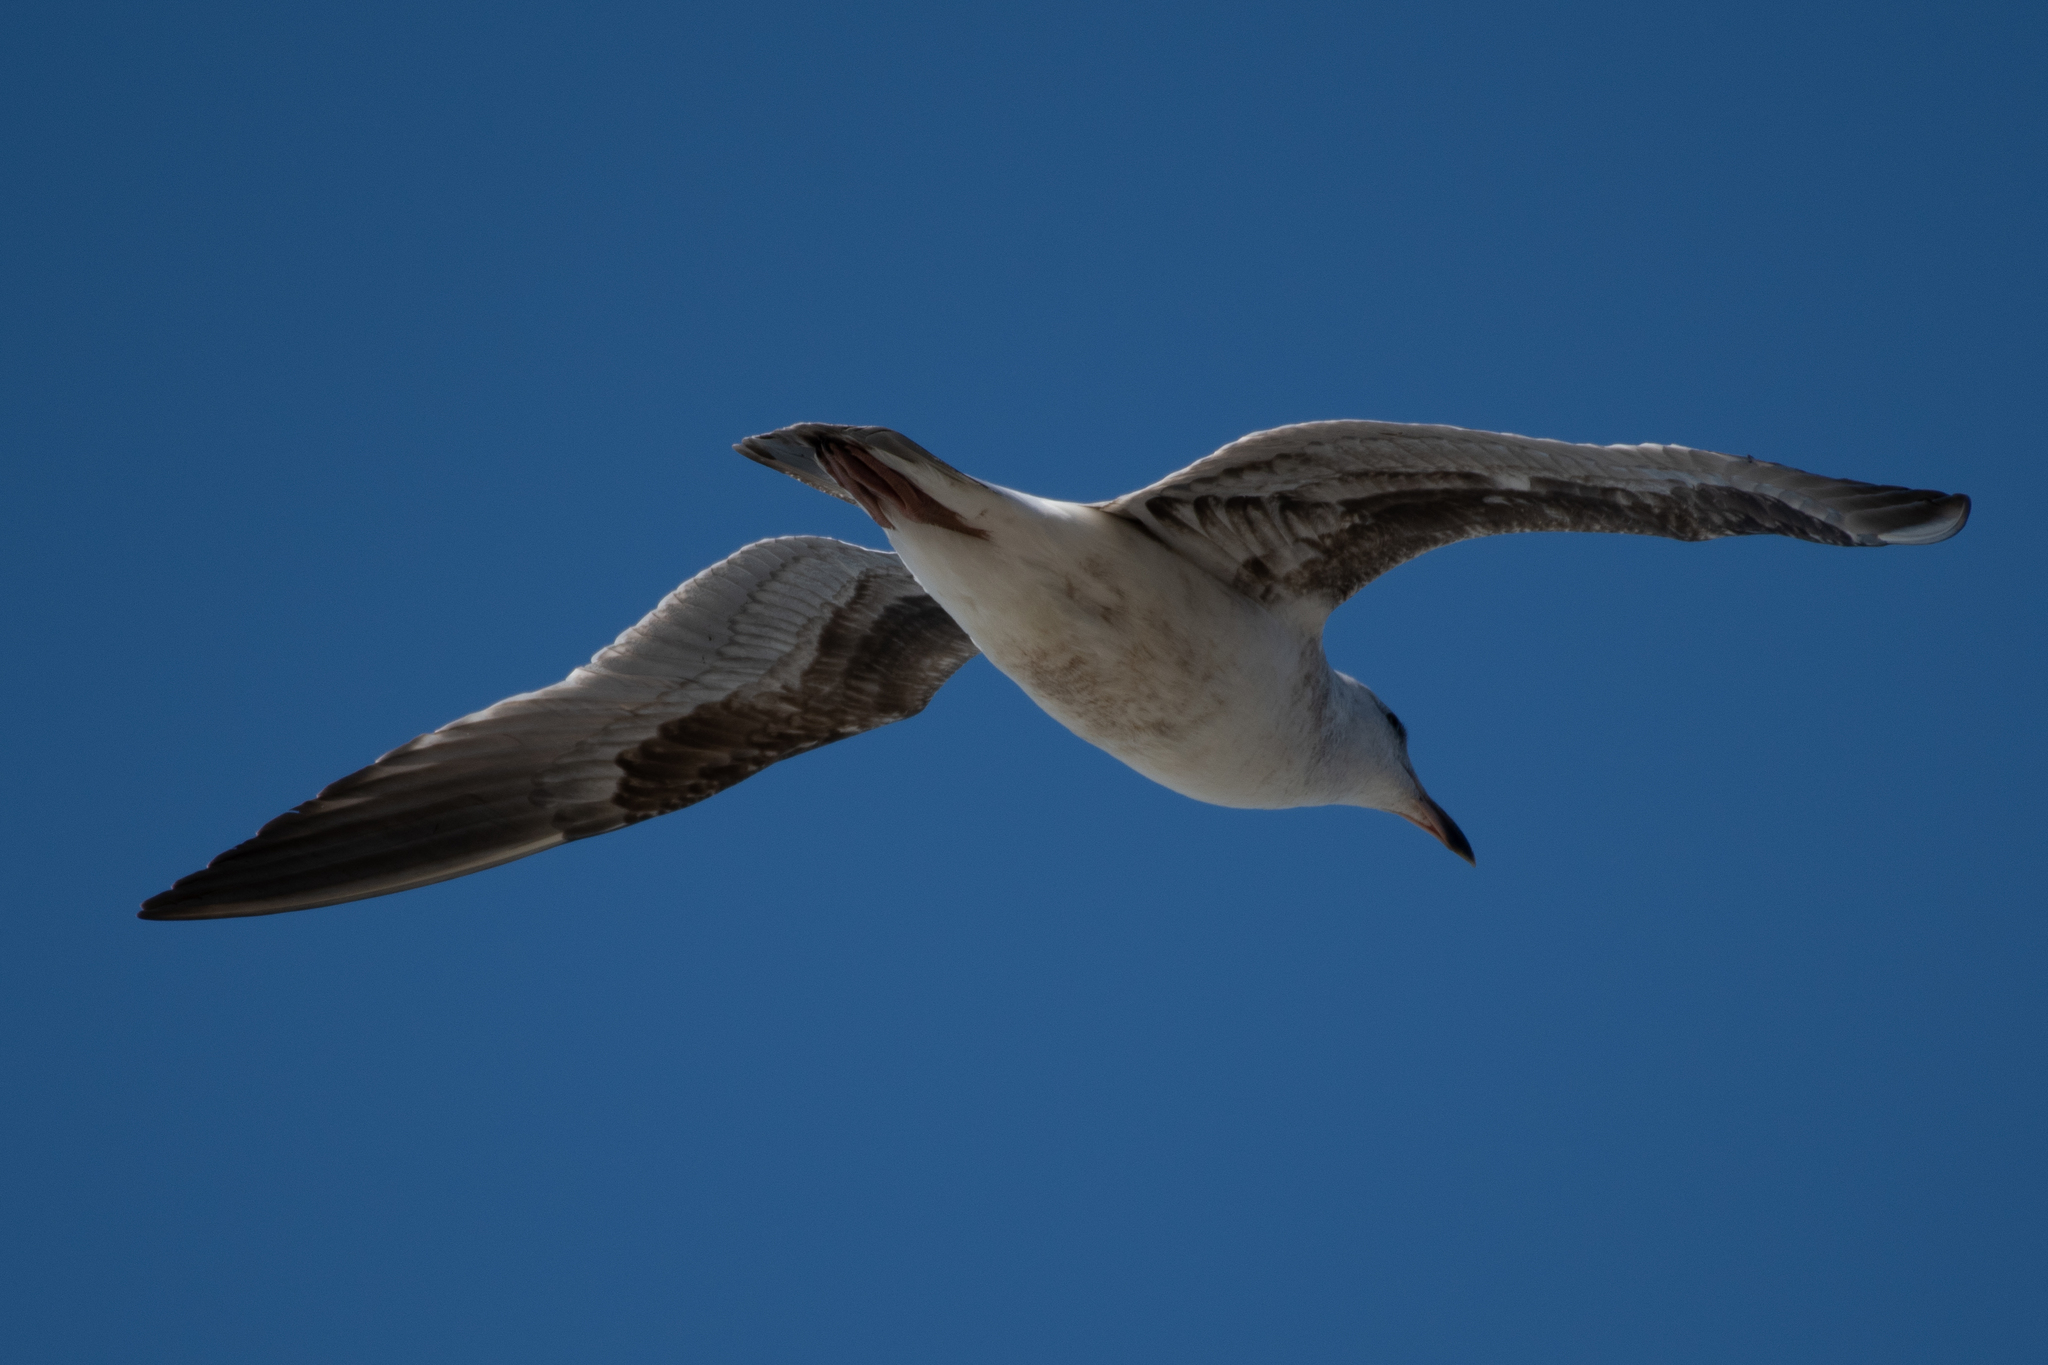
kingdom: Animalia
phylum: Chordata
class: Aves
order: Charadriiformes
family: Laridae
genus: Larus
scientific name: Larus occidentalis
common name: Western gull
